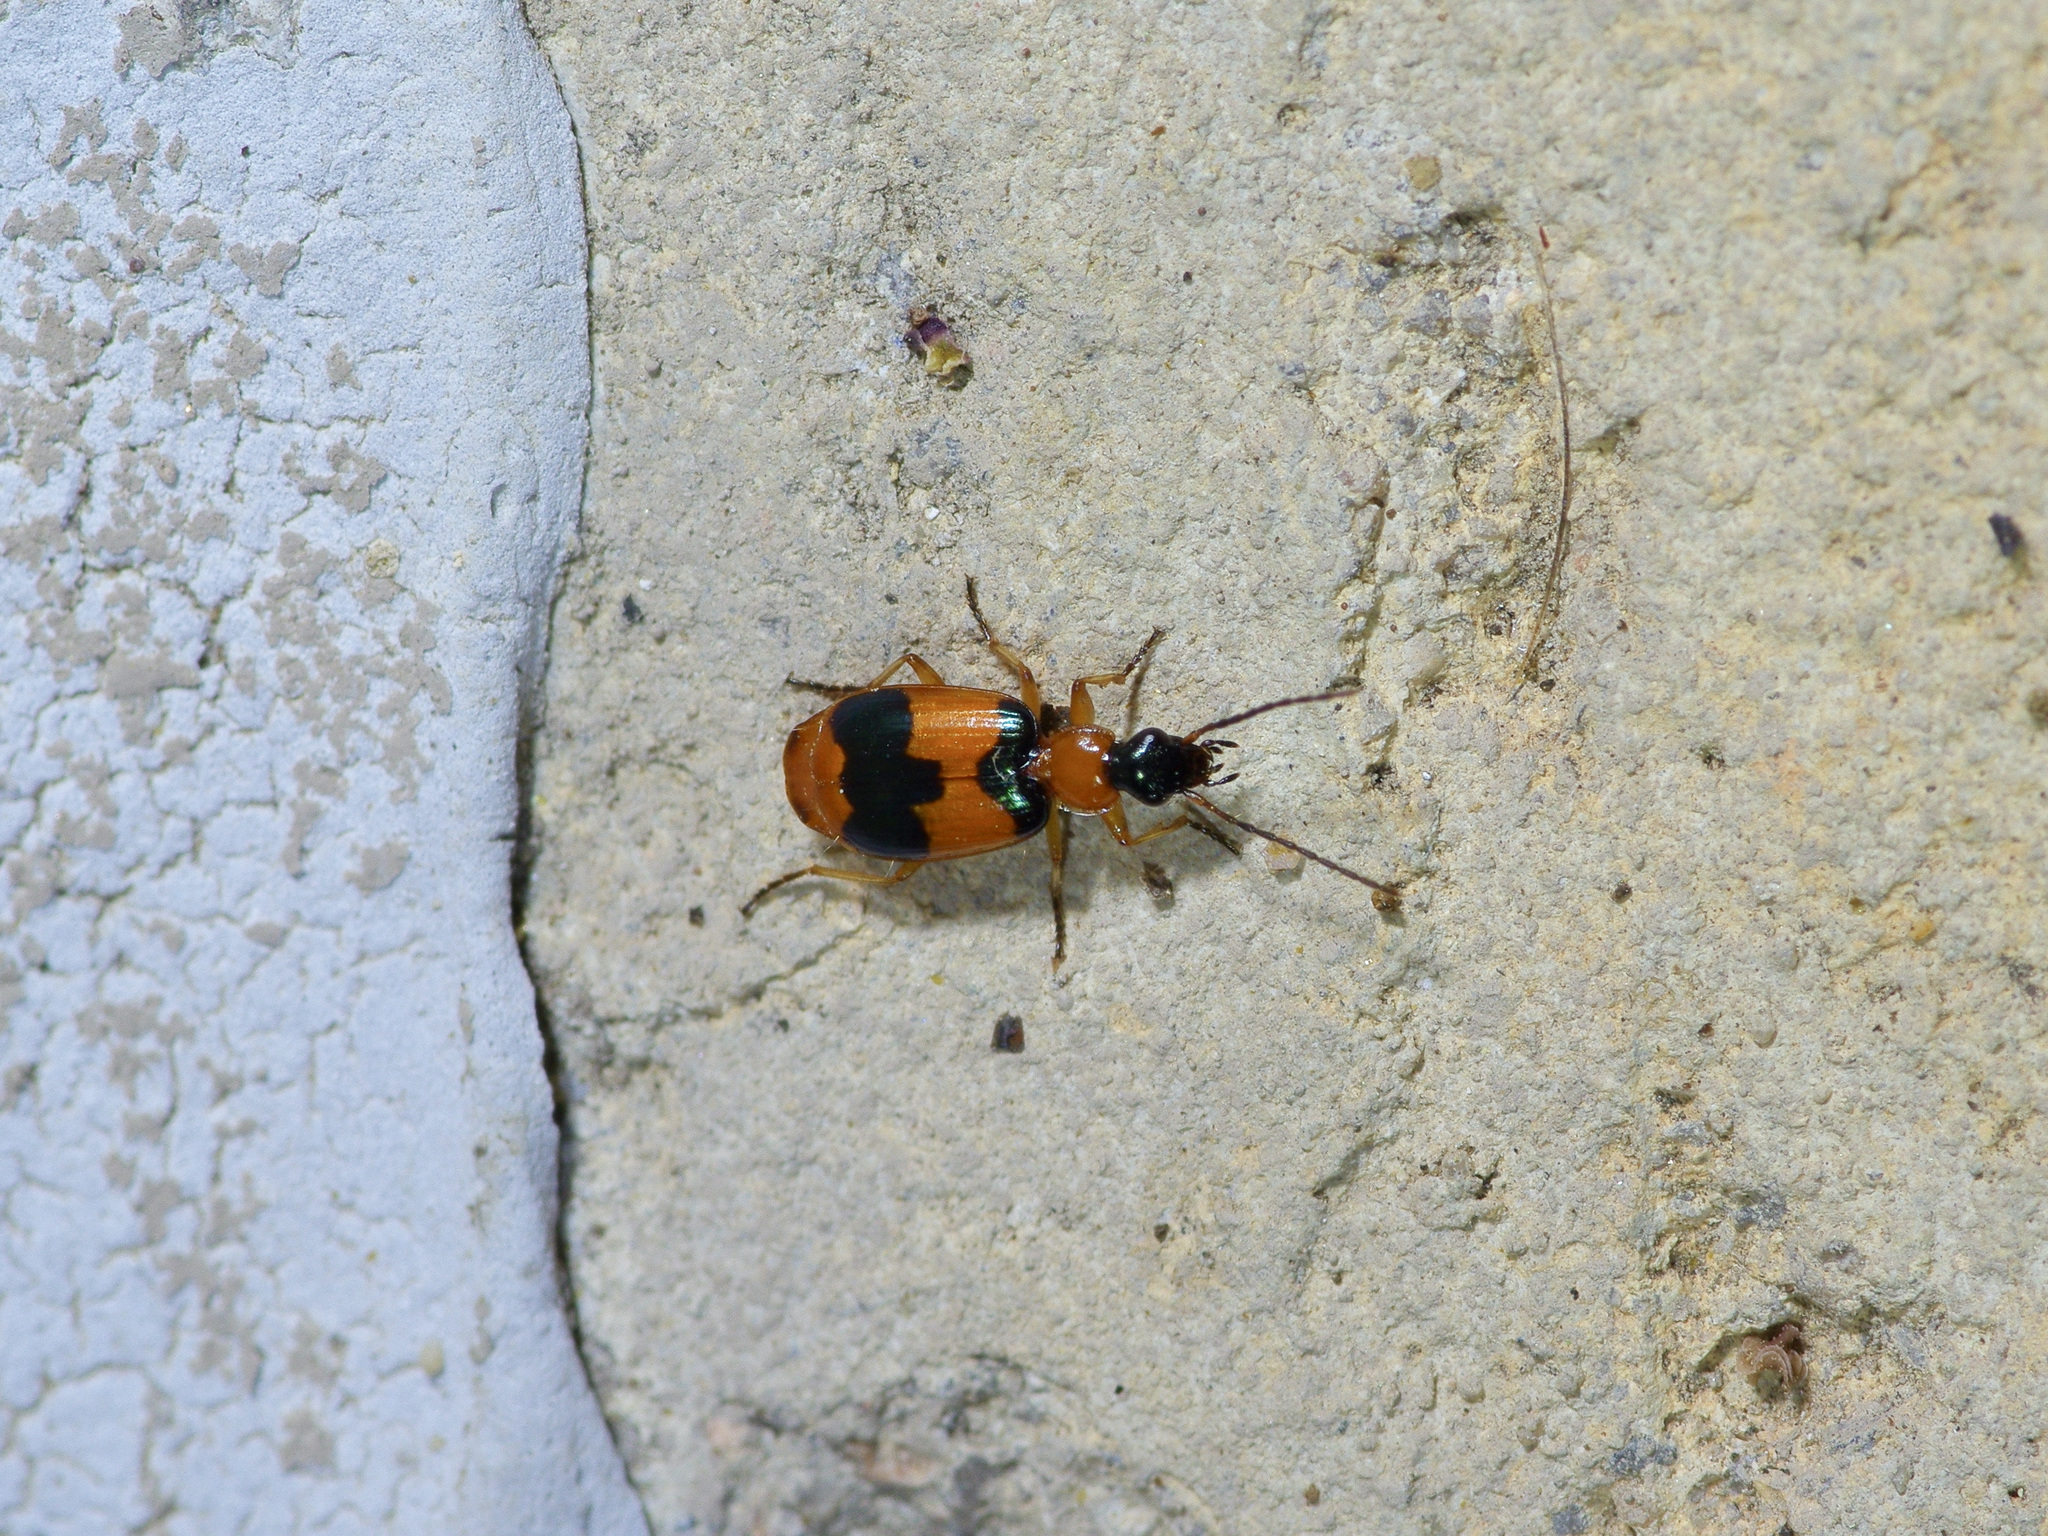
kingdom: Animalia
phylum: Arthropoda
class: Insecta
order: Coleoptera
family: Carabidae
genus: Lebia
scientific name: Lebia pulchella
